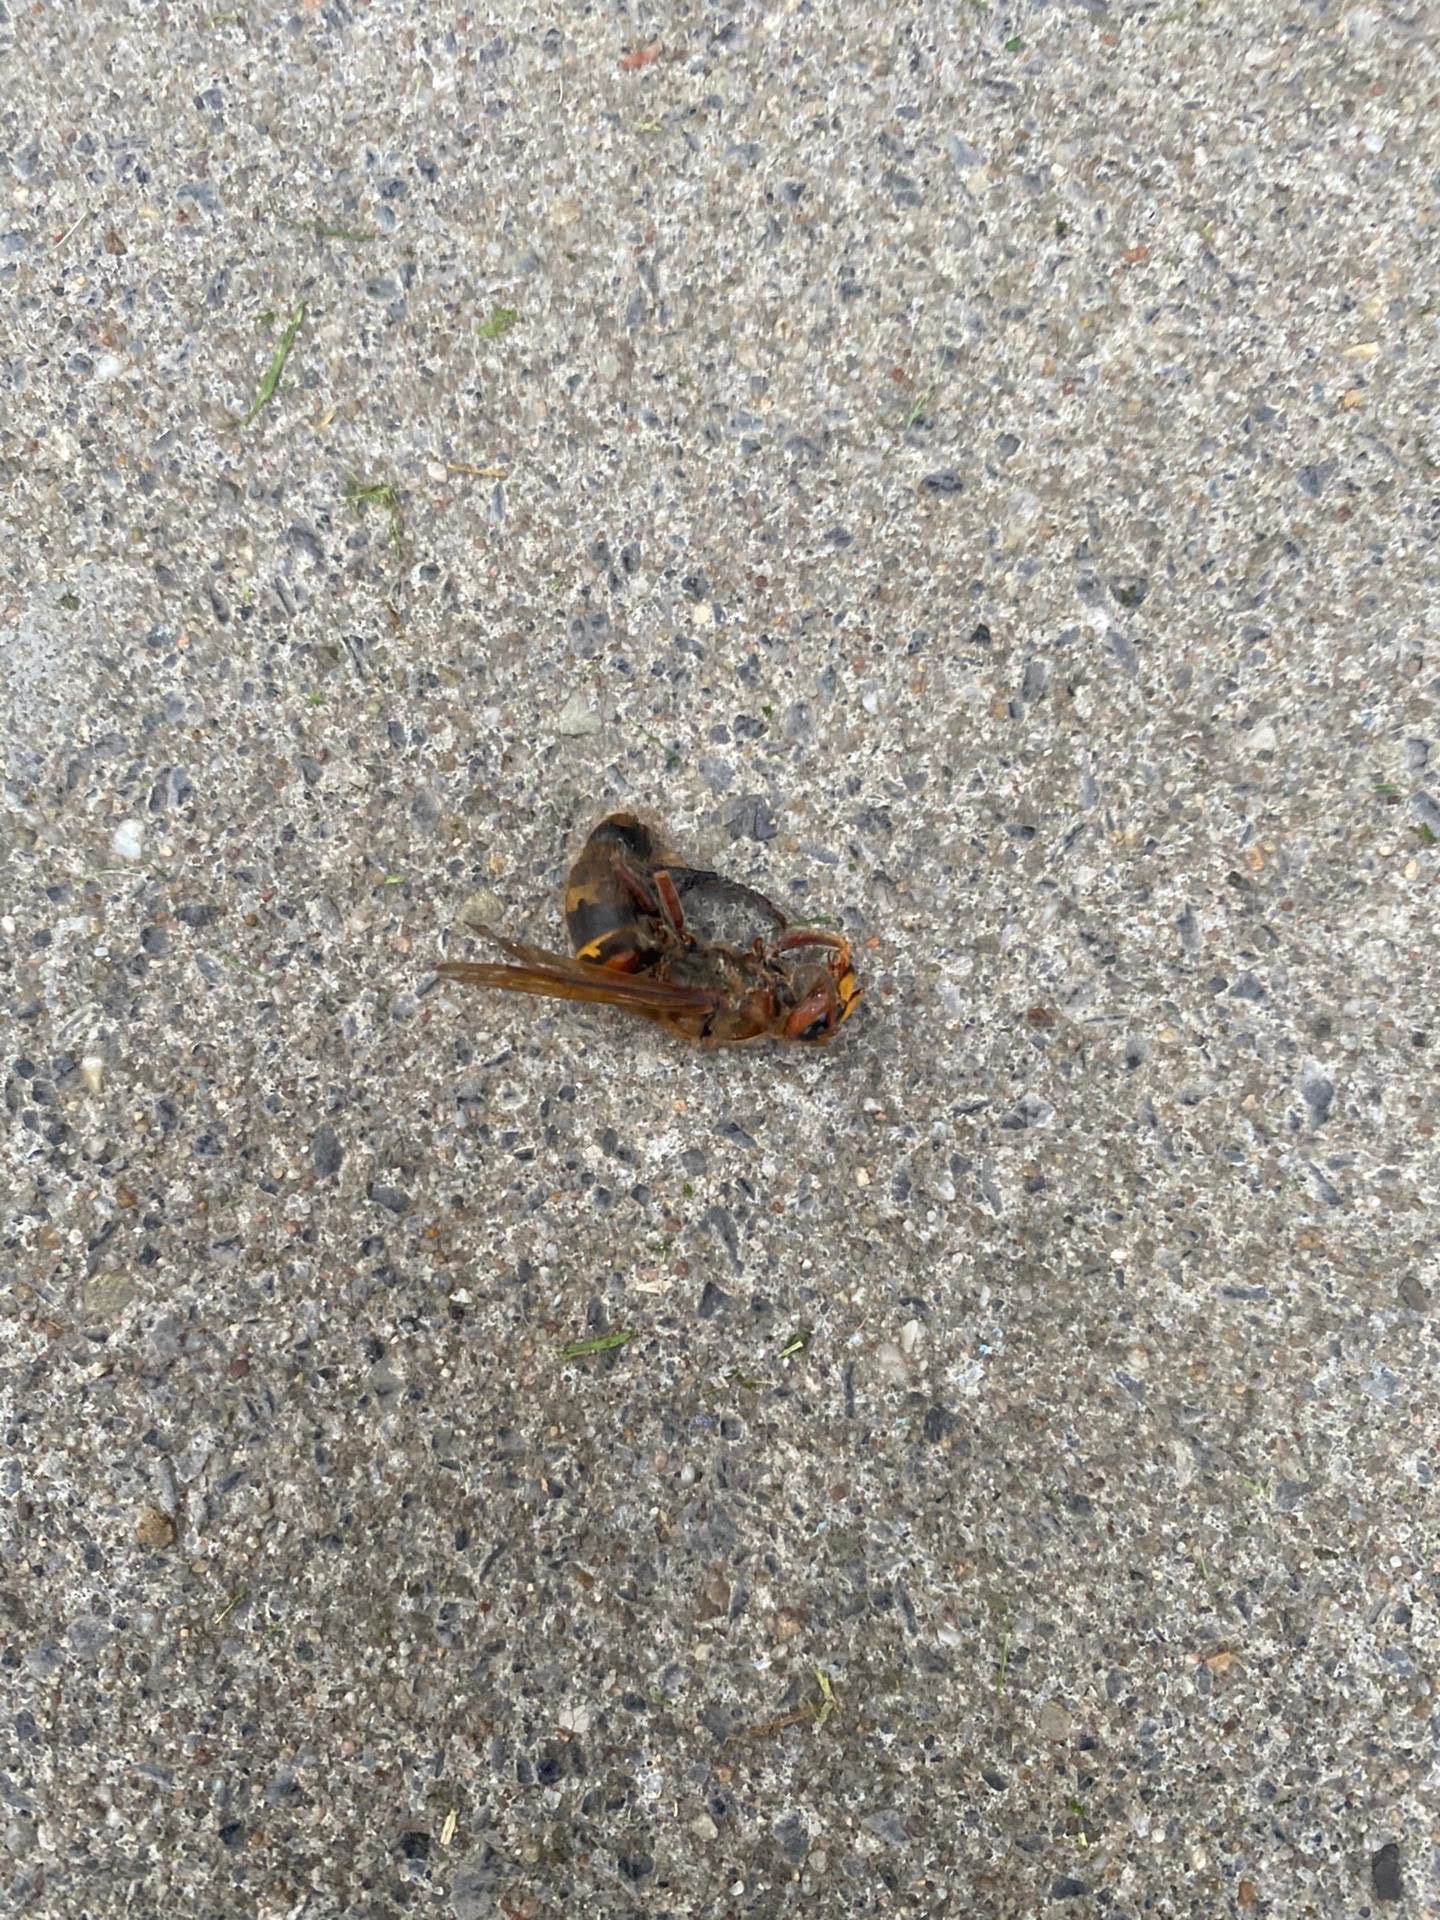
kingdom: Animalia
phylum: Arthropoda
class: Insecta
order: Hymenoptera
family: Vespidae
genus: Vespa
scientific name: Vespa crabro
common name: Hornet
